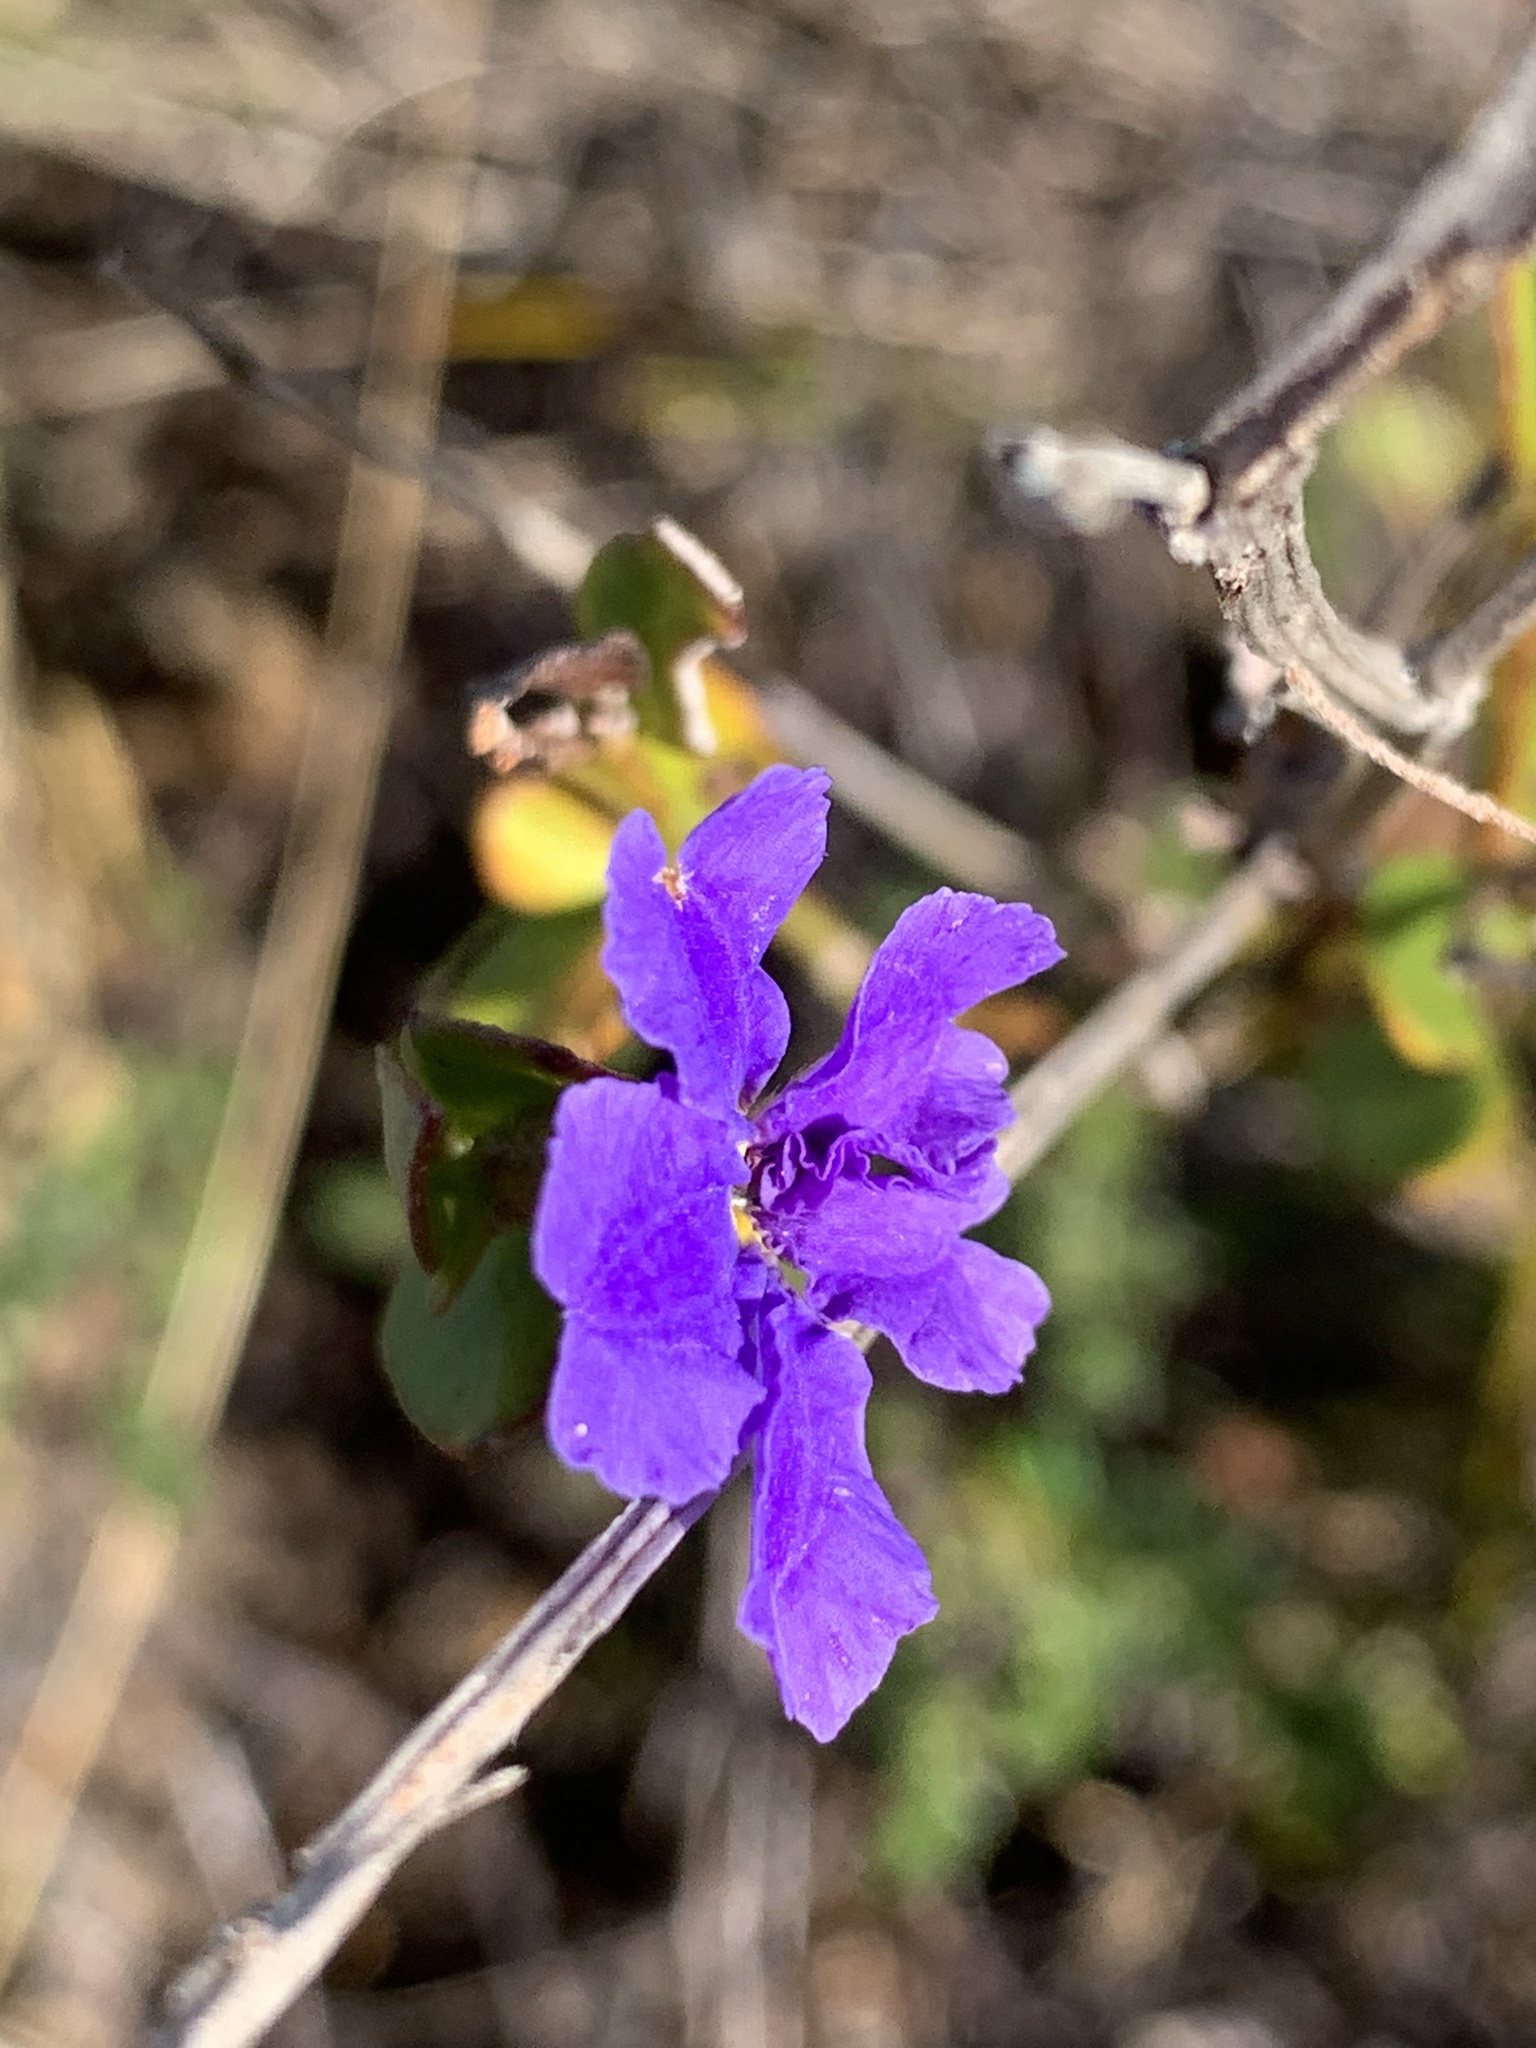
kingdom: Plantae
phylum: Tracheophyta
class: Magnoliopsida
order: Asterales
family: Goodeniaceae
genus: Dampiera
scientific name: Dampiera stricta
